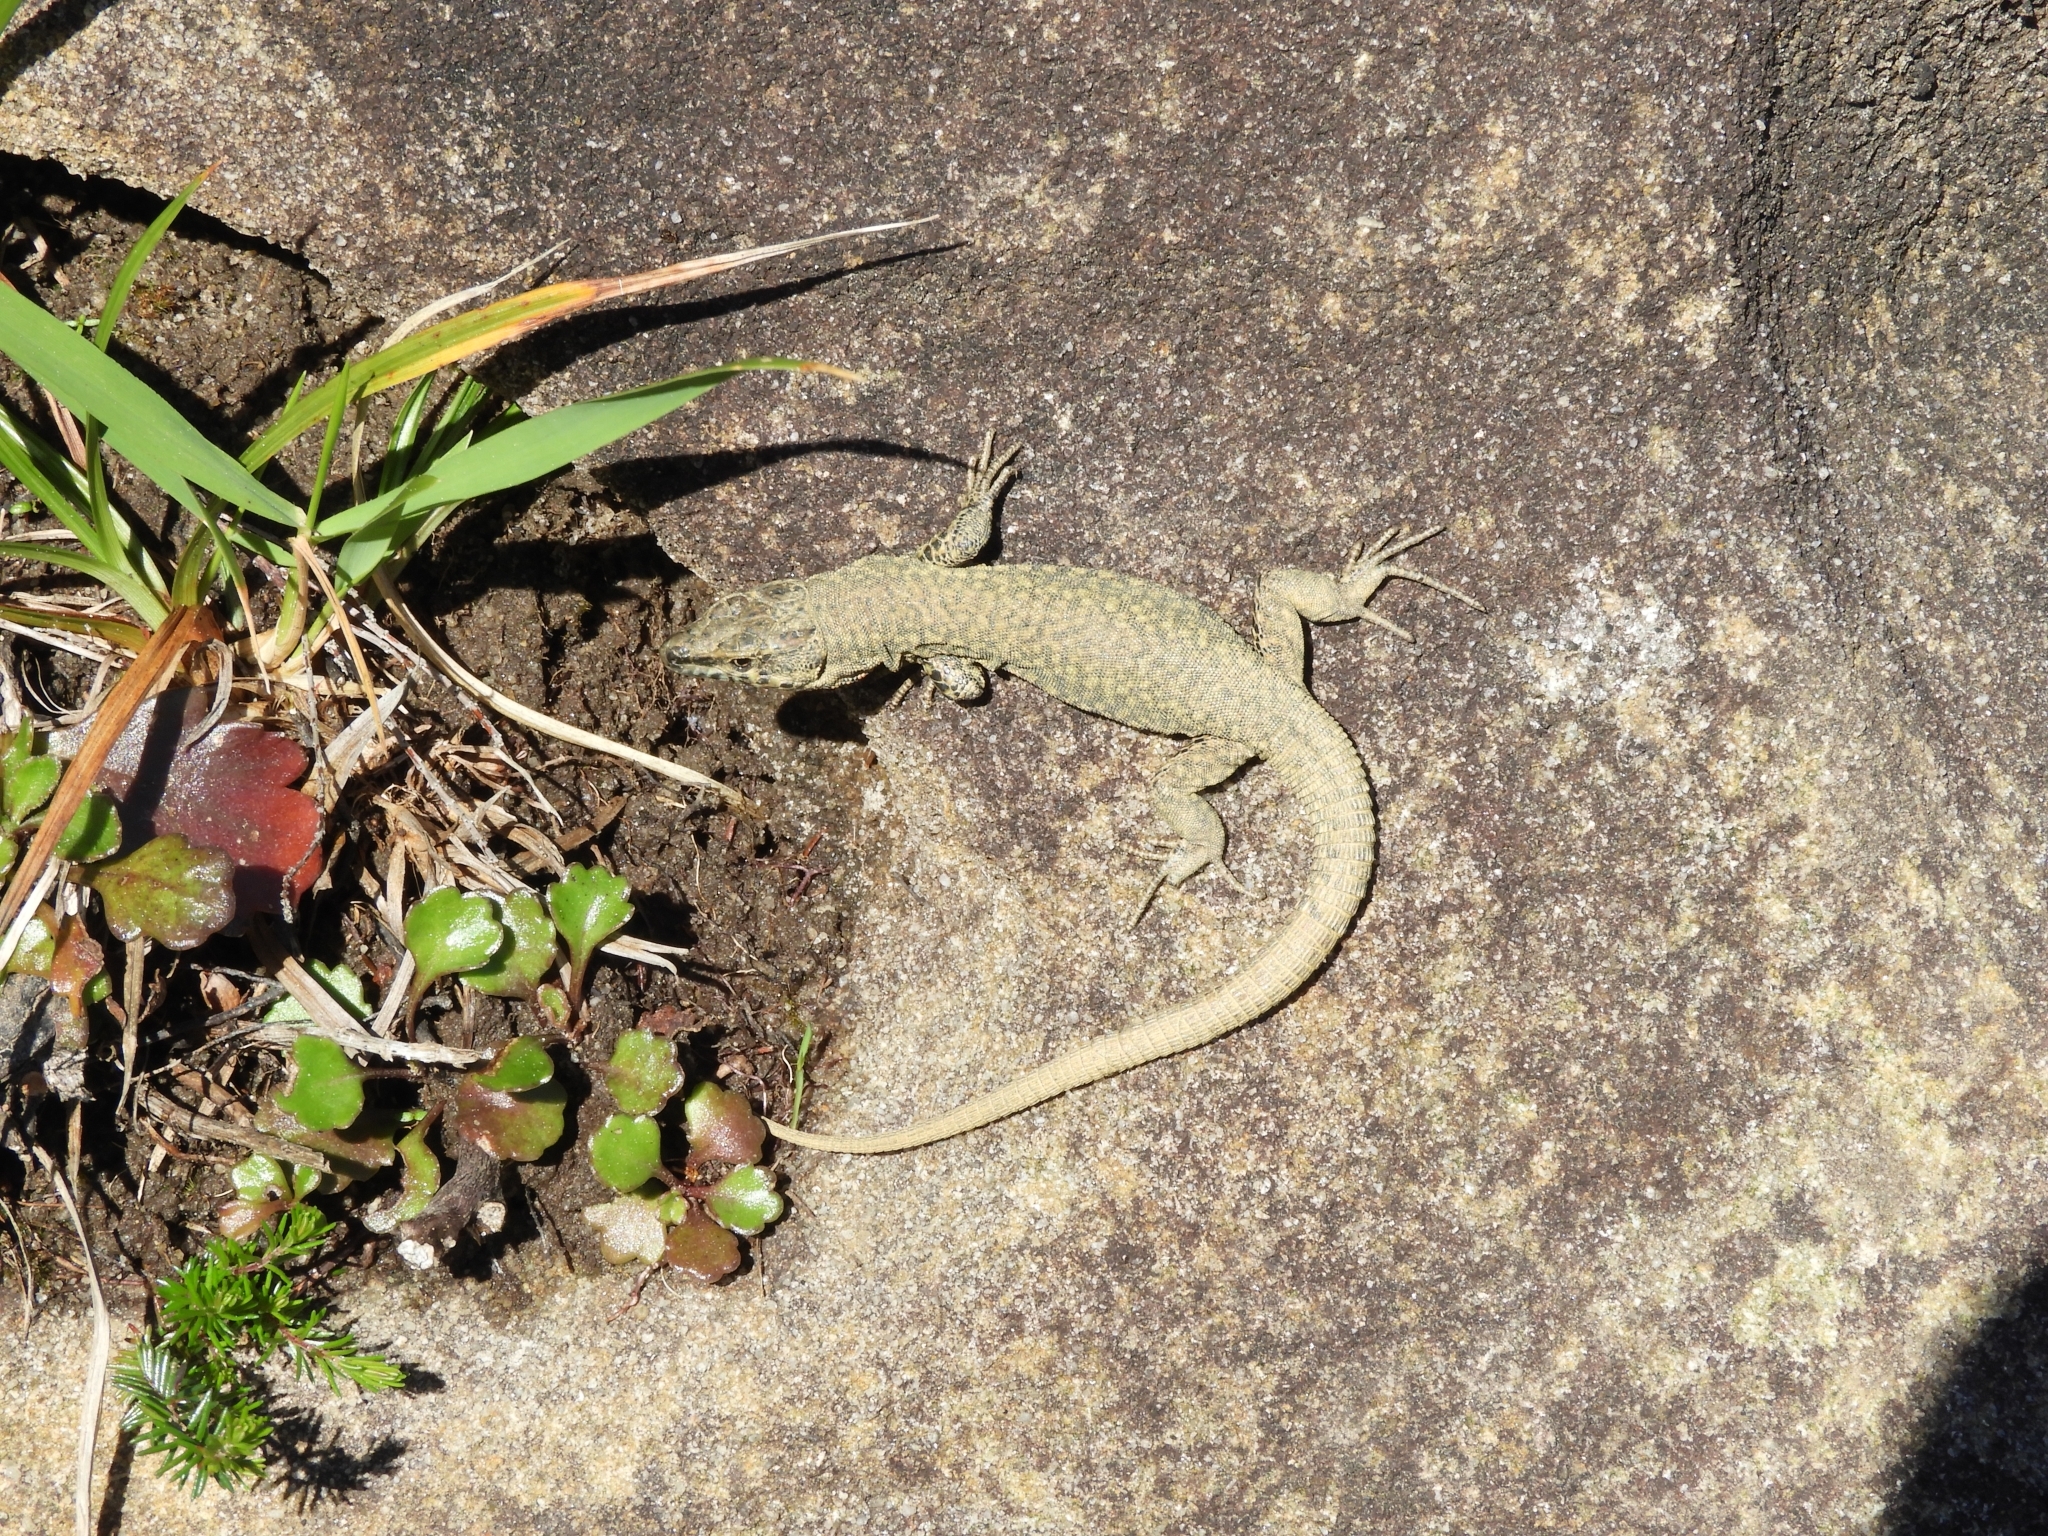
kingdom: Animalia
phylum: Chordata
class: Squamata
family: Lacertidae
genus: Podarcis
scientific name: Podarcis muralis
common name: Common wall lizard
